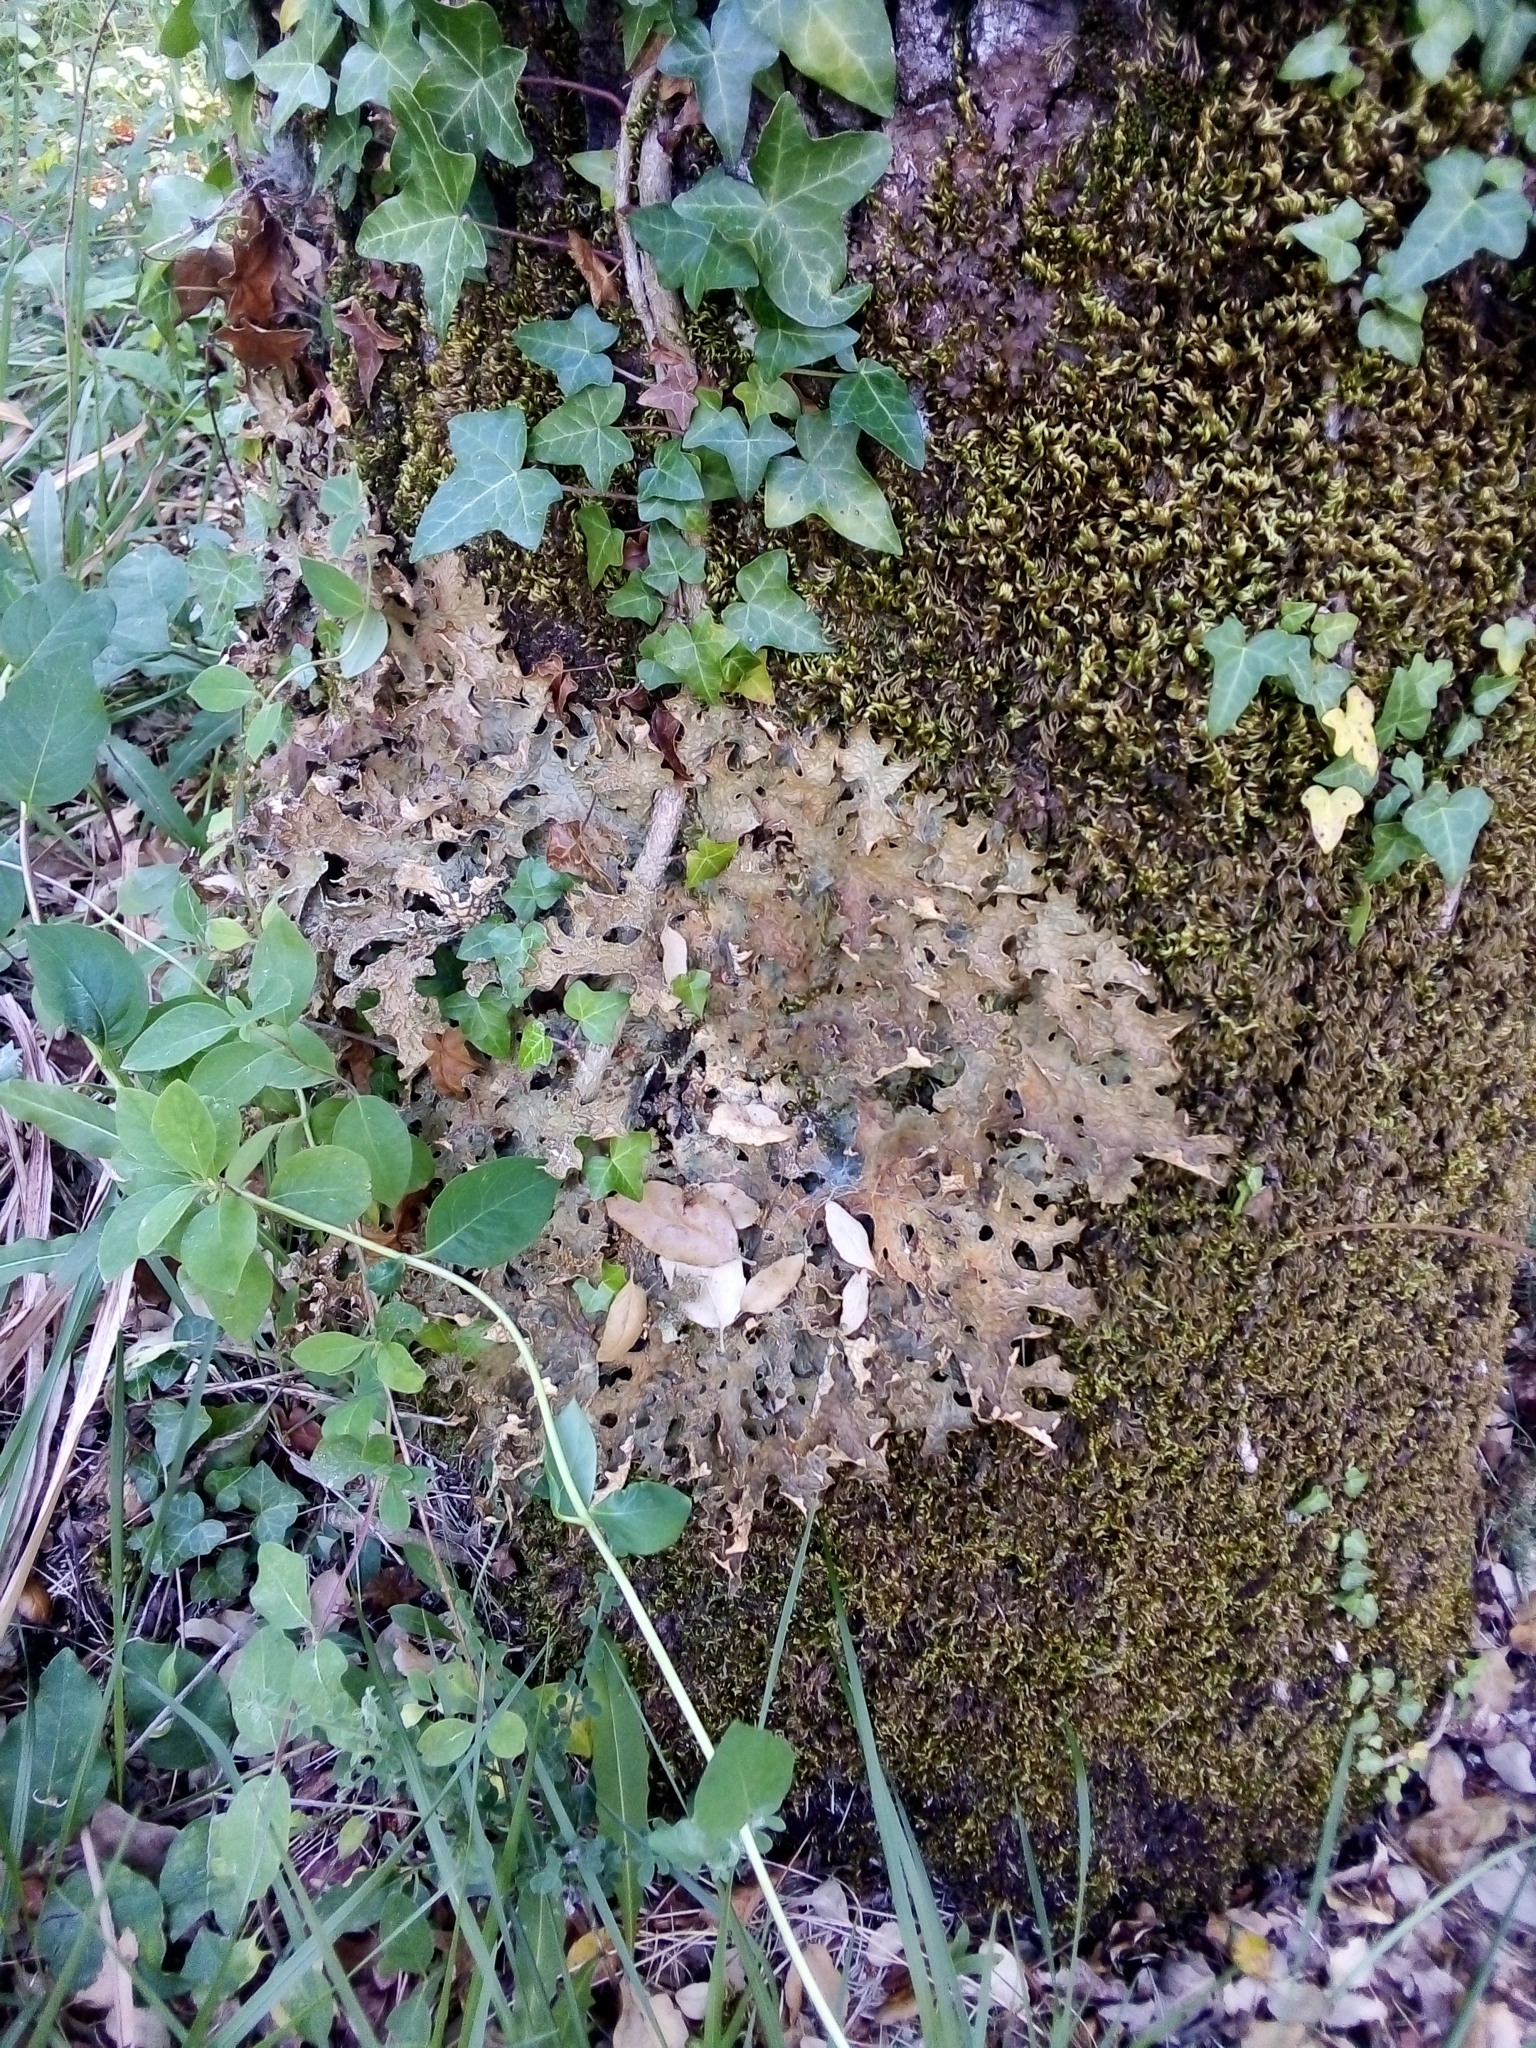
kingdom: Fungi
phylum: Ascomycota
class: Lecanoromycetes
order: Peltigerales
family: Lobariaceae
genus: Lobaria
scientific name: Lobaria pulmonaria
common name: Lungwort
